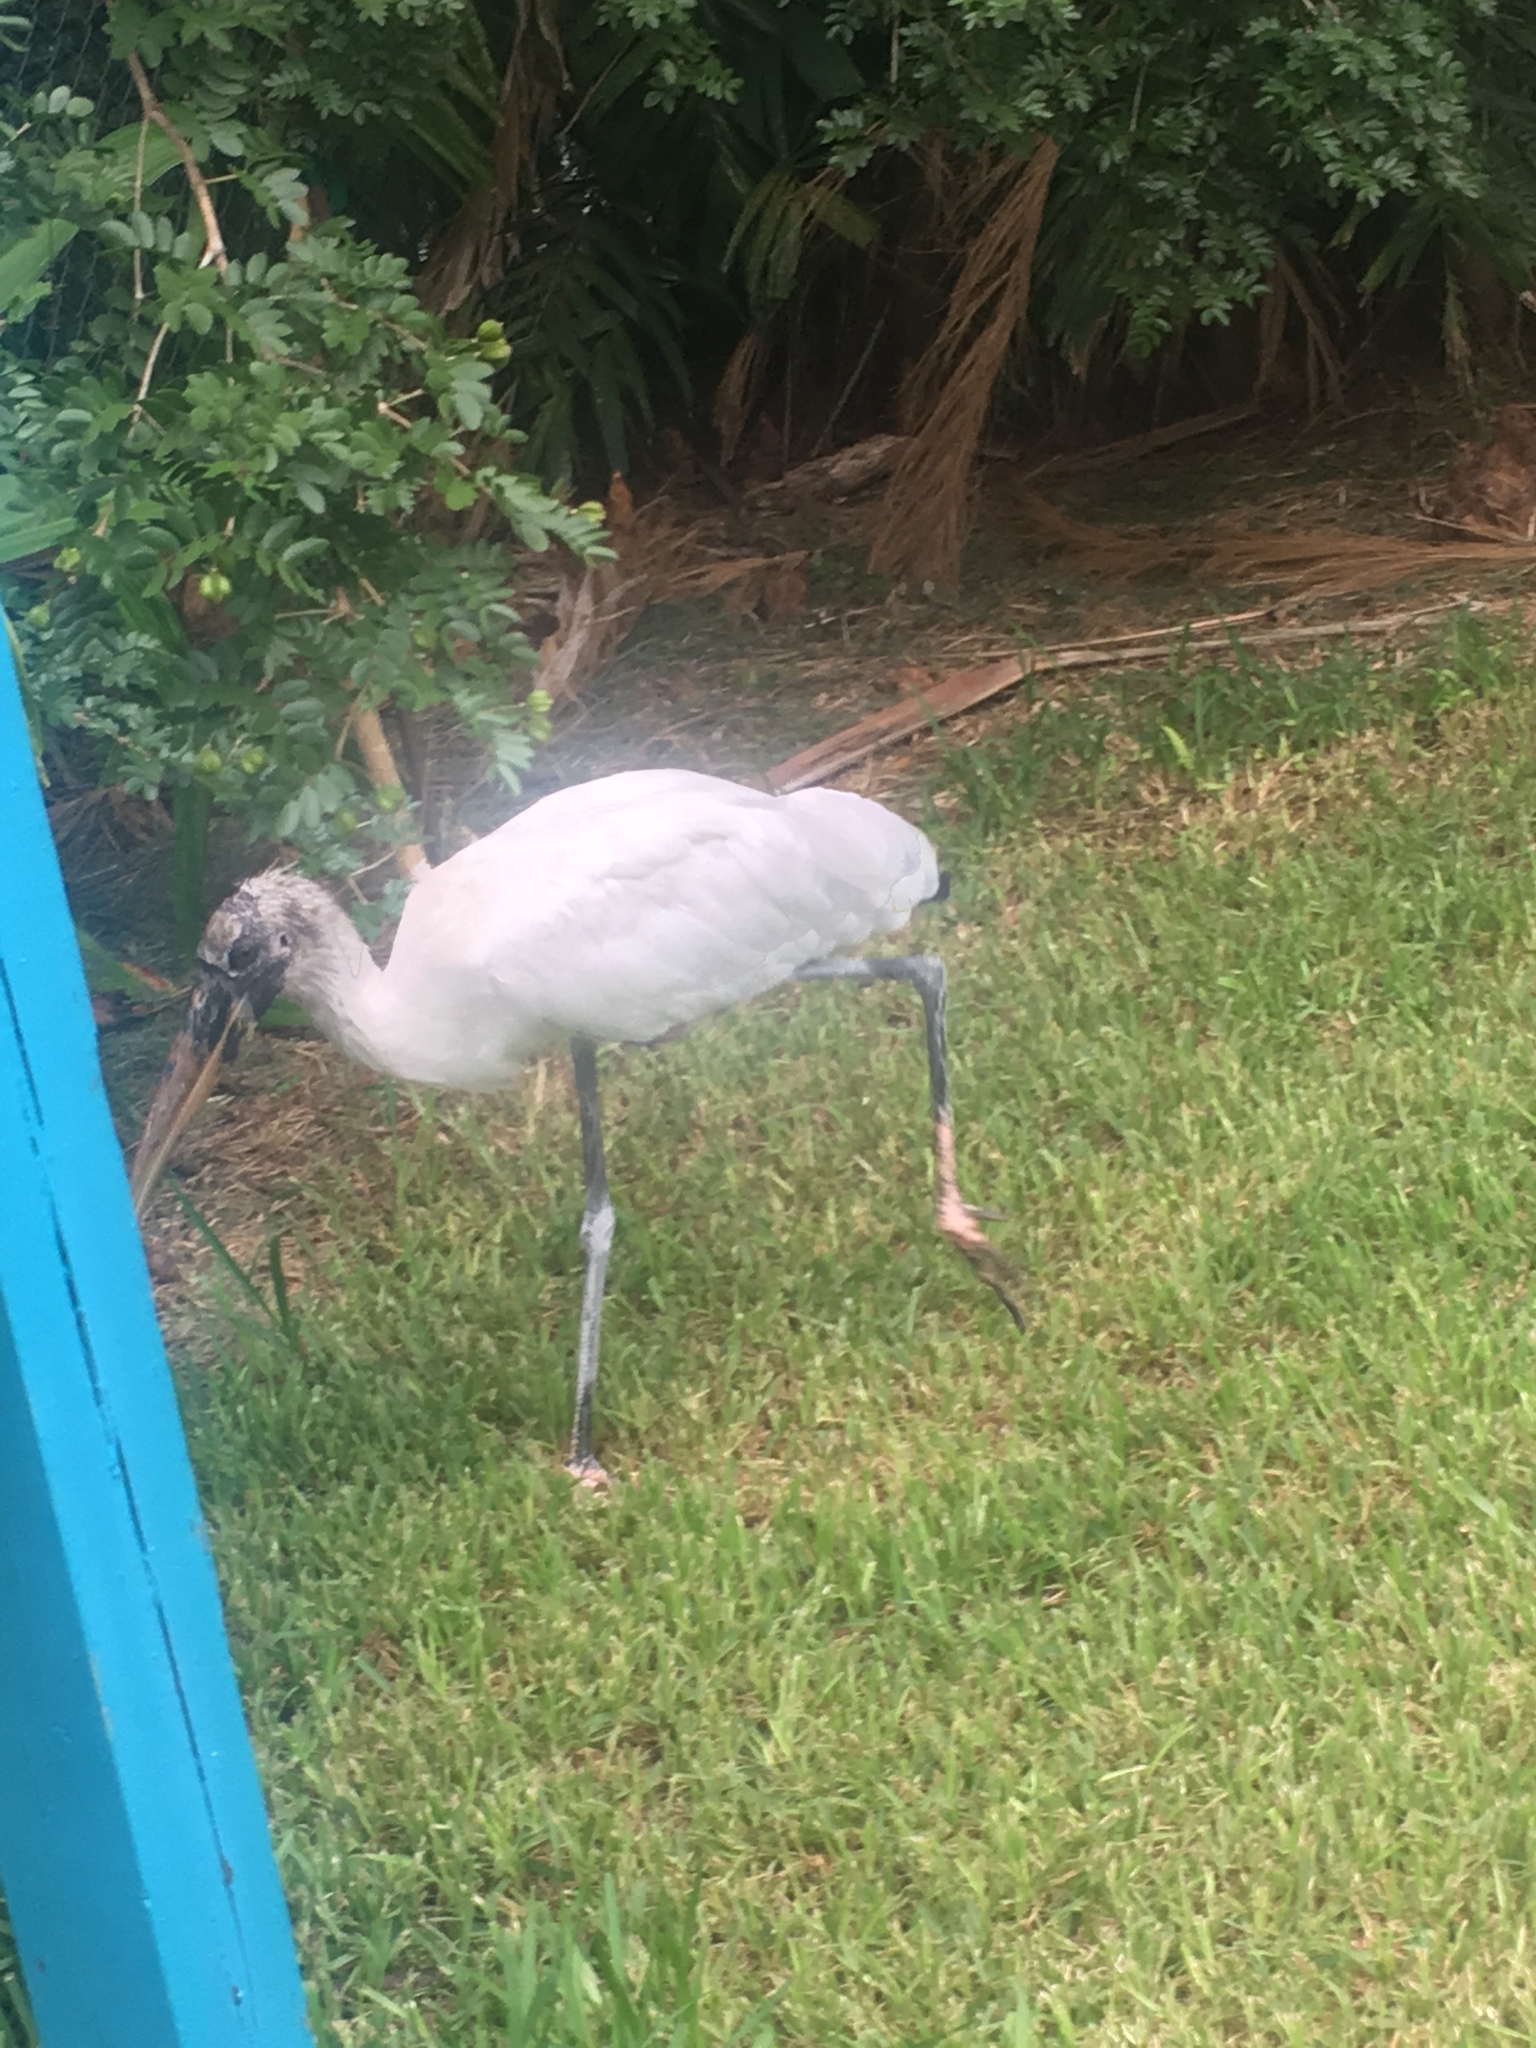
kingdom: Animalia
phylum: Chordata
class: Aves
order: Ciconiiformes
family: Ciconiidae
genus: Mycteria
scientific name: Mycteria americana
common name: Wood stork
